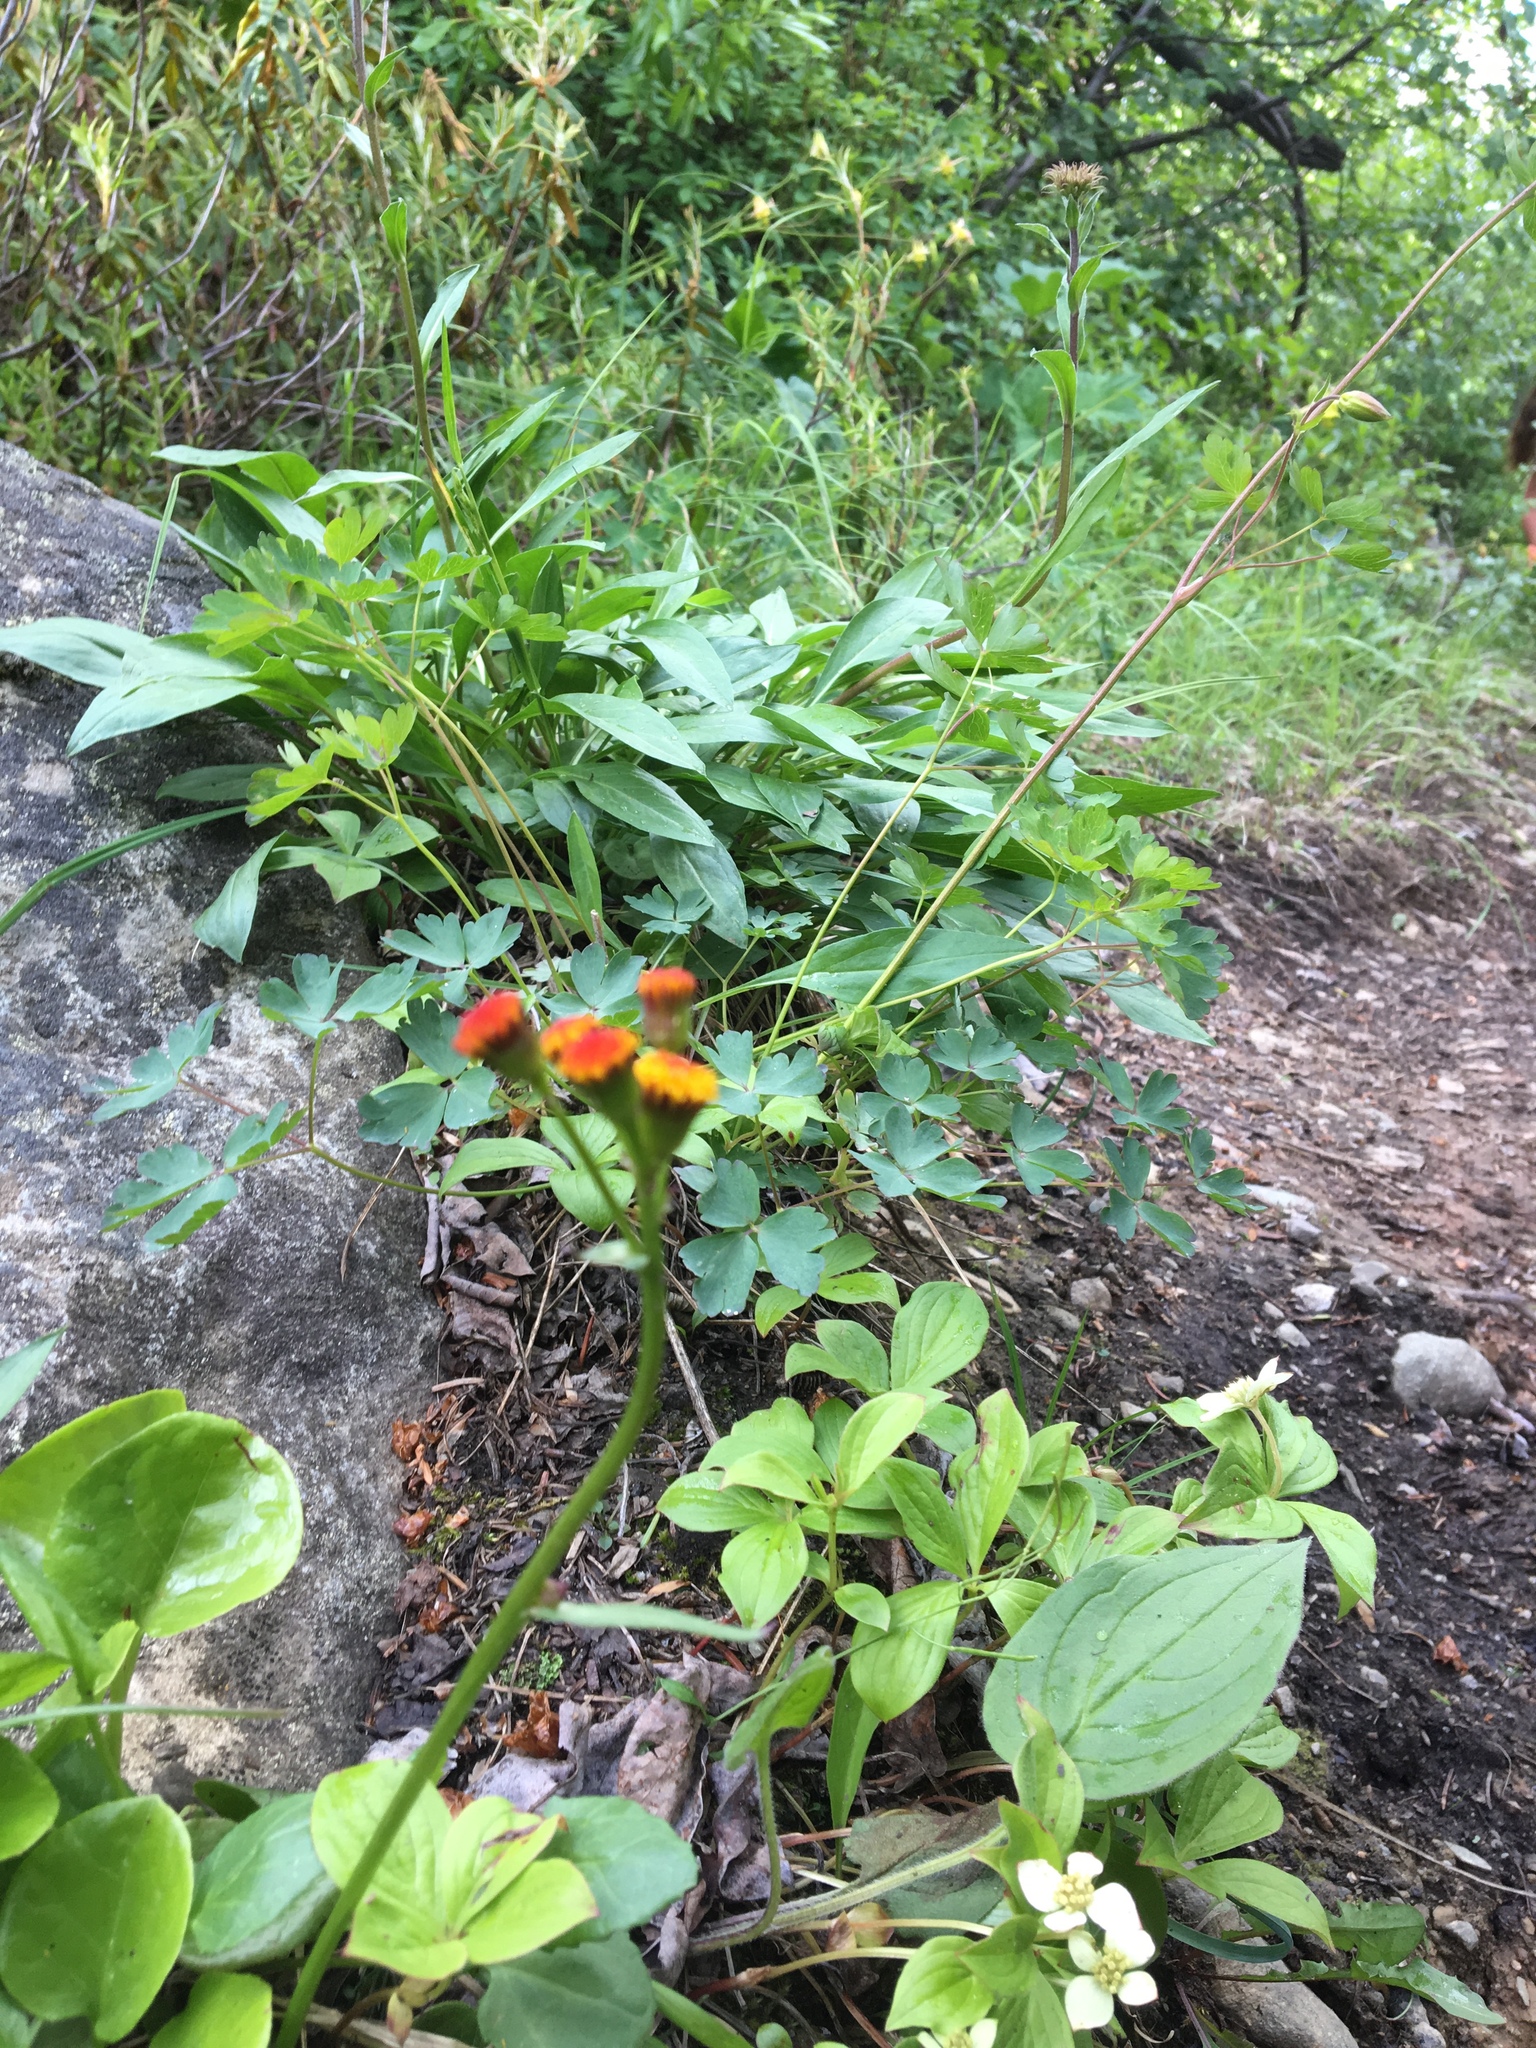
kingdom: Plantae
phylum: Tracheophyta
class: Magnoliopsida
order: Asterales
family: Asteraceae
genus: Packera
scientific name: Packera pauciflora
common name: Alpine groundsel
